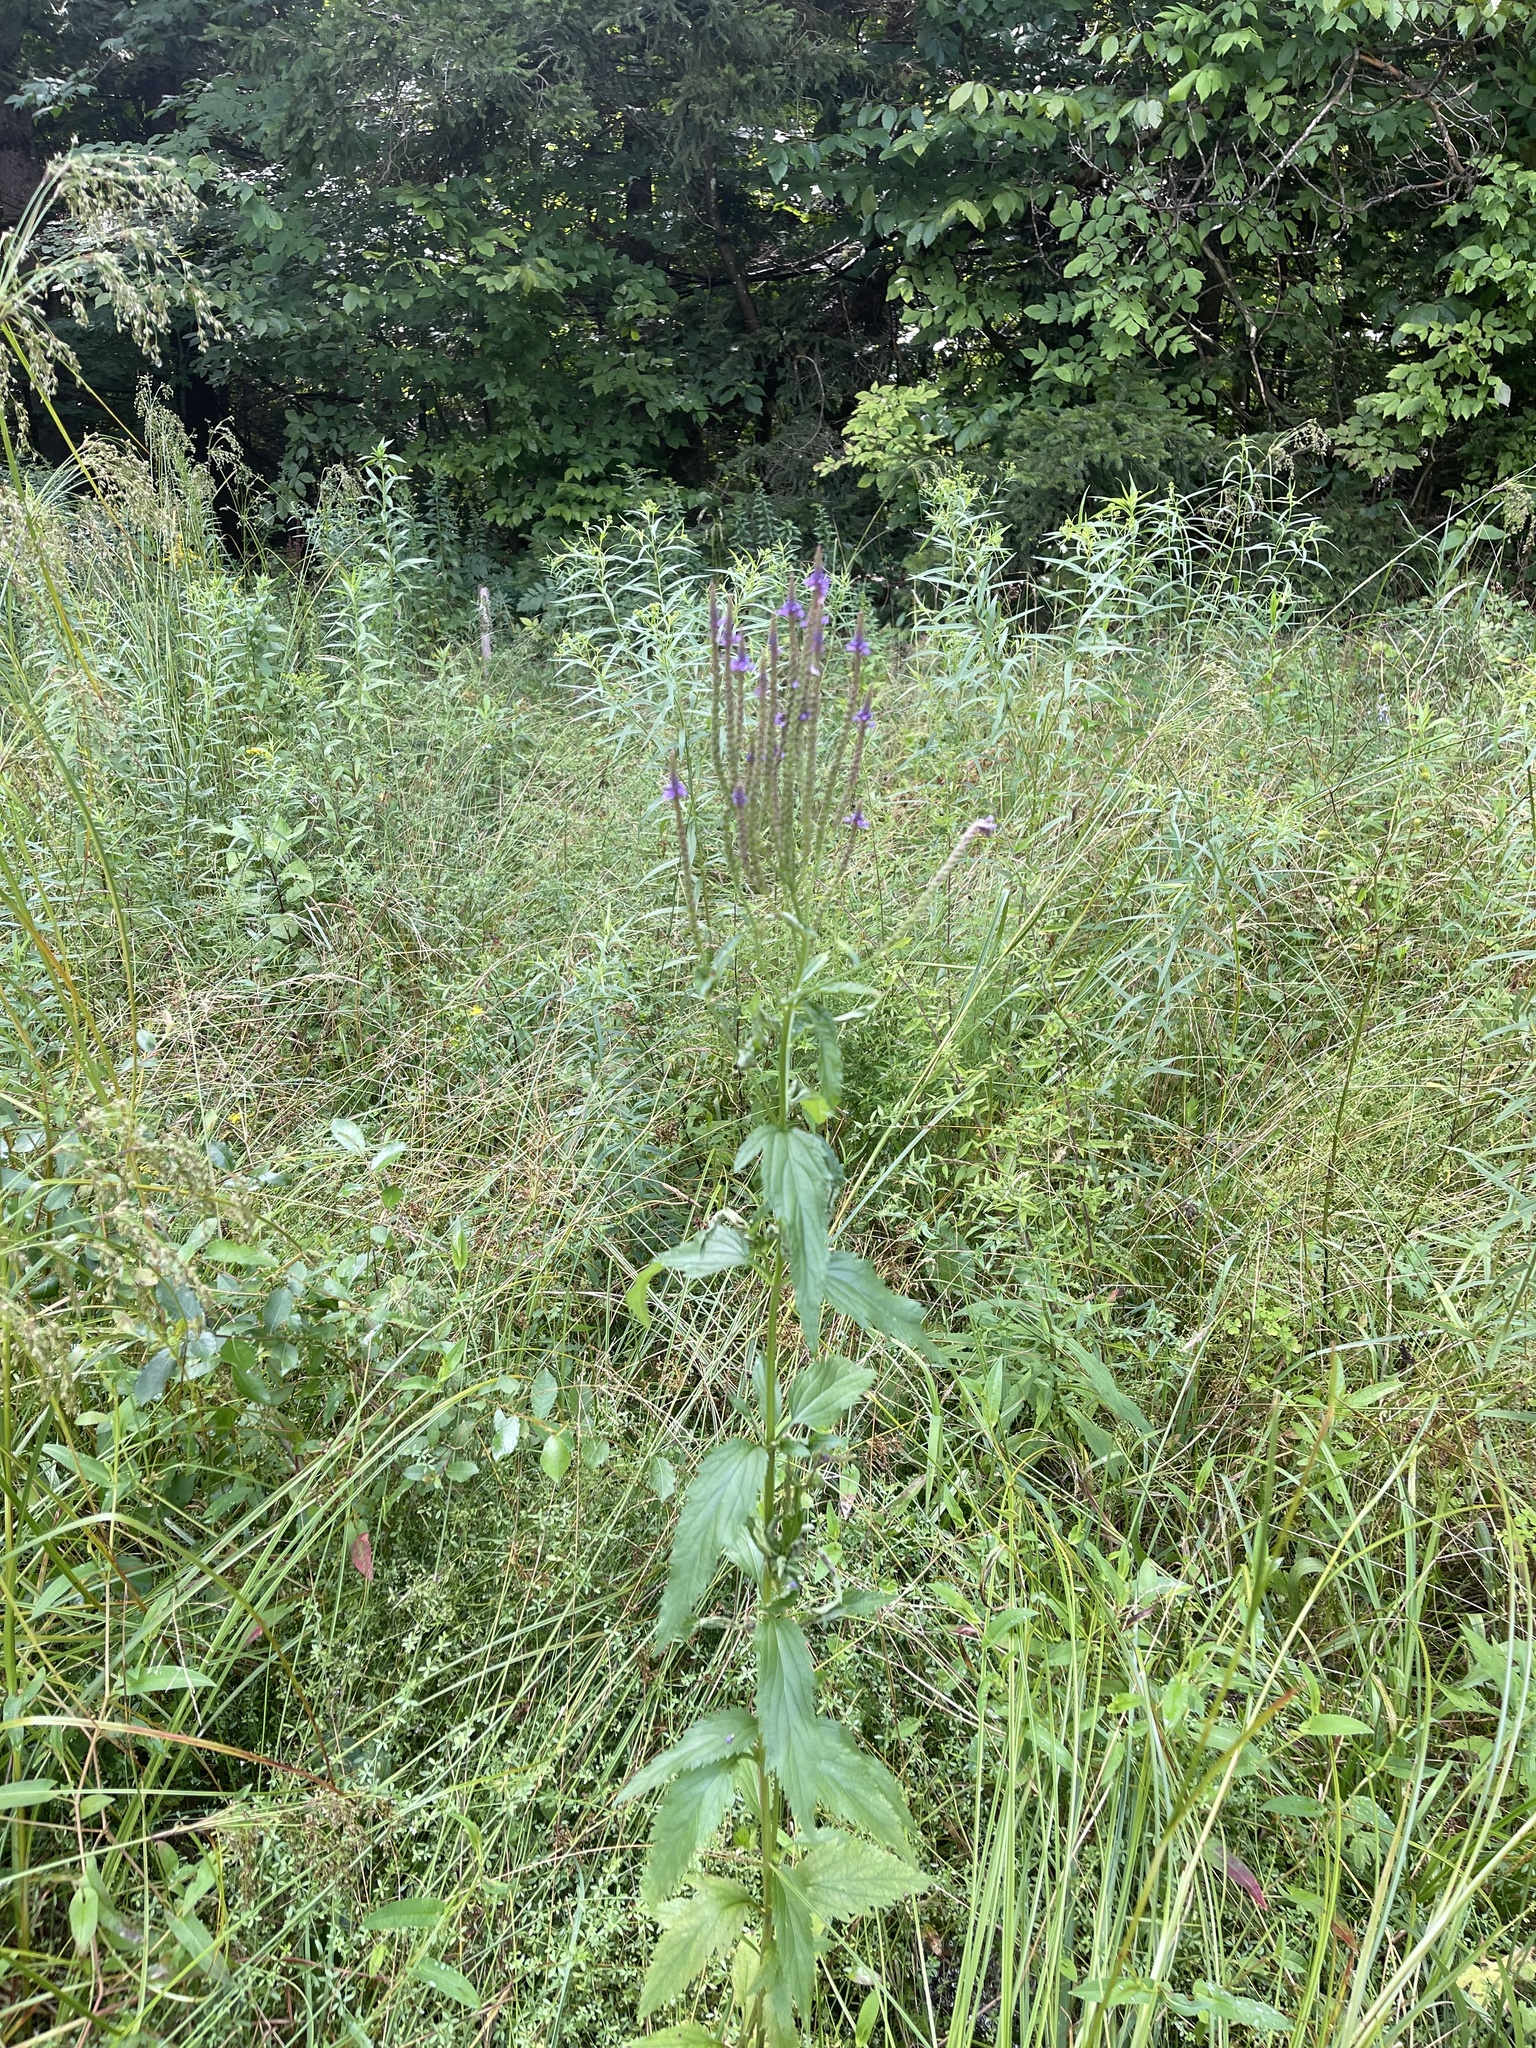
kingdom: Plantae
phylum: Tracheophyta
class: Magnoliopsida
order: Lamiales
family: Verbenaceae
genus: Verbena
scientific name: Verbena hastata
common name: American blue vervain
